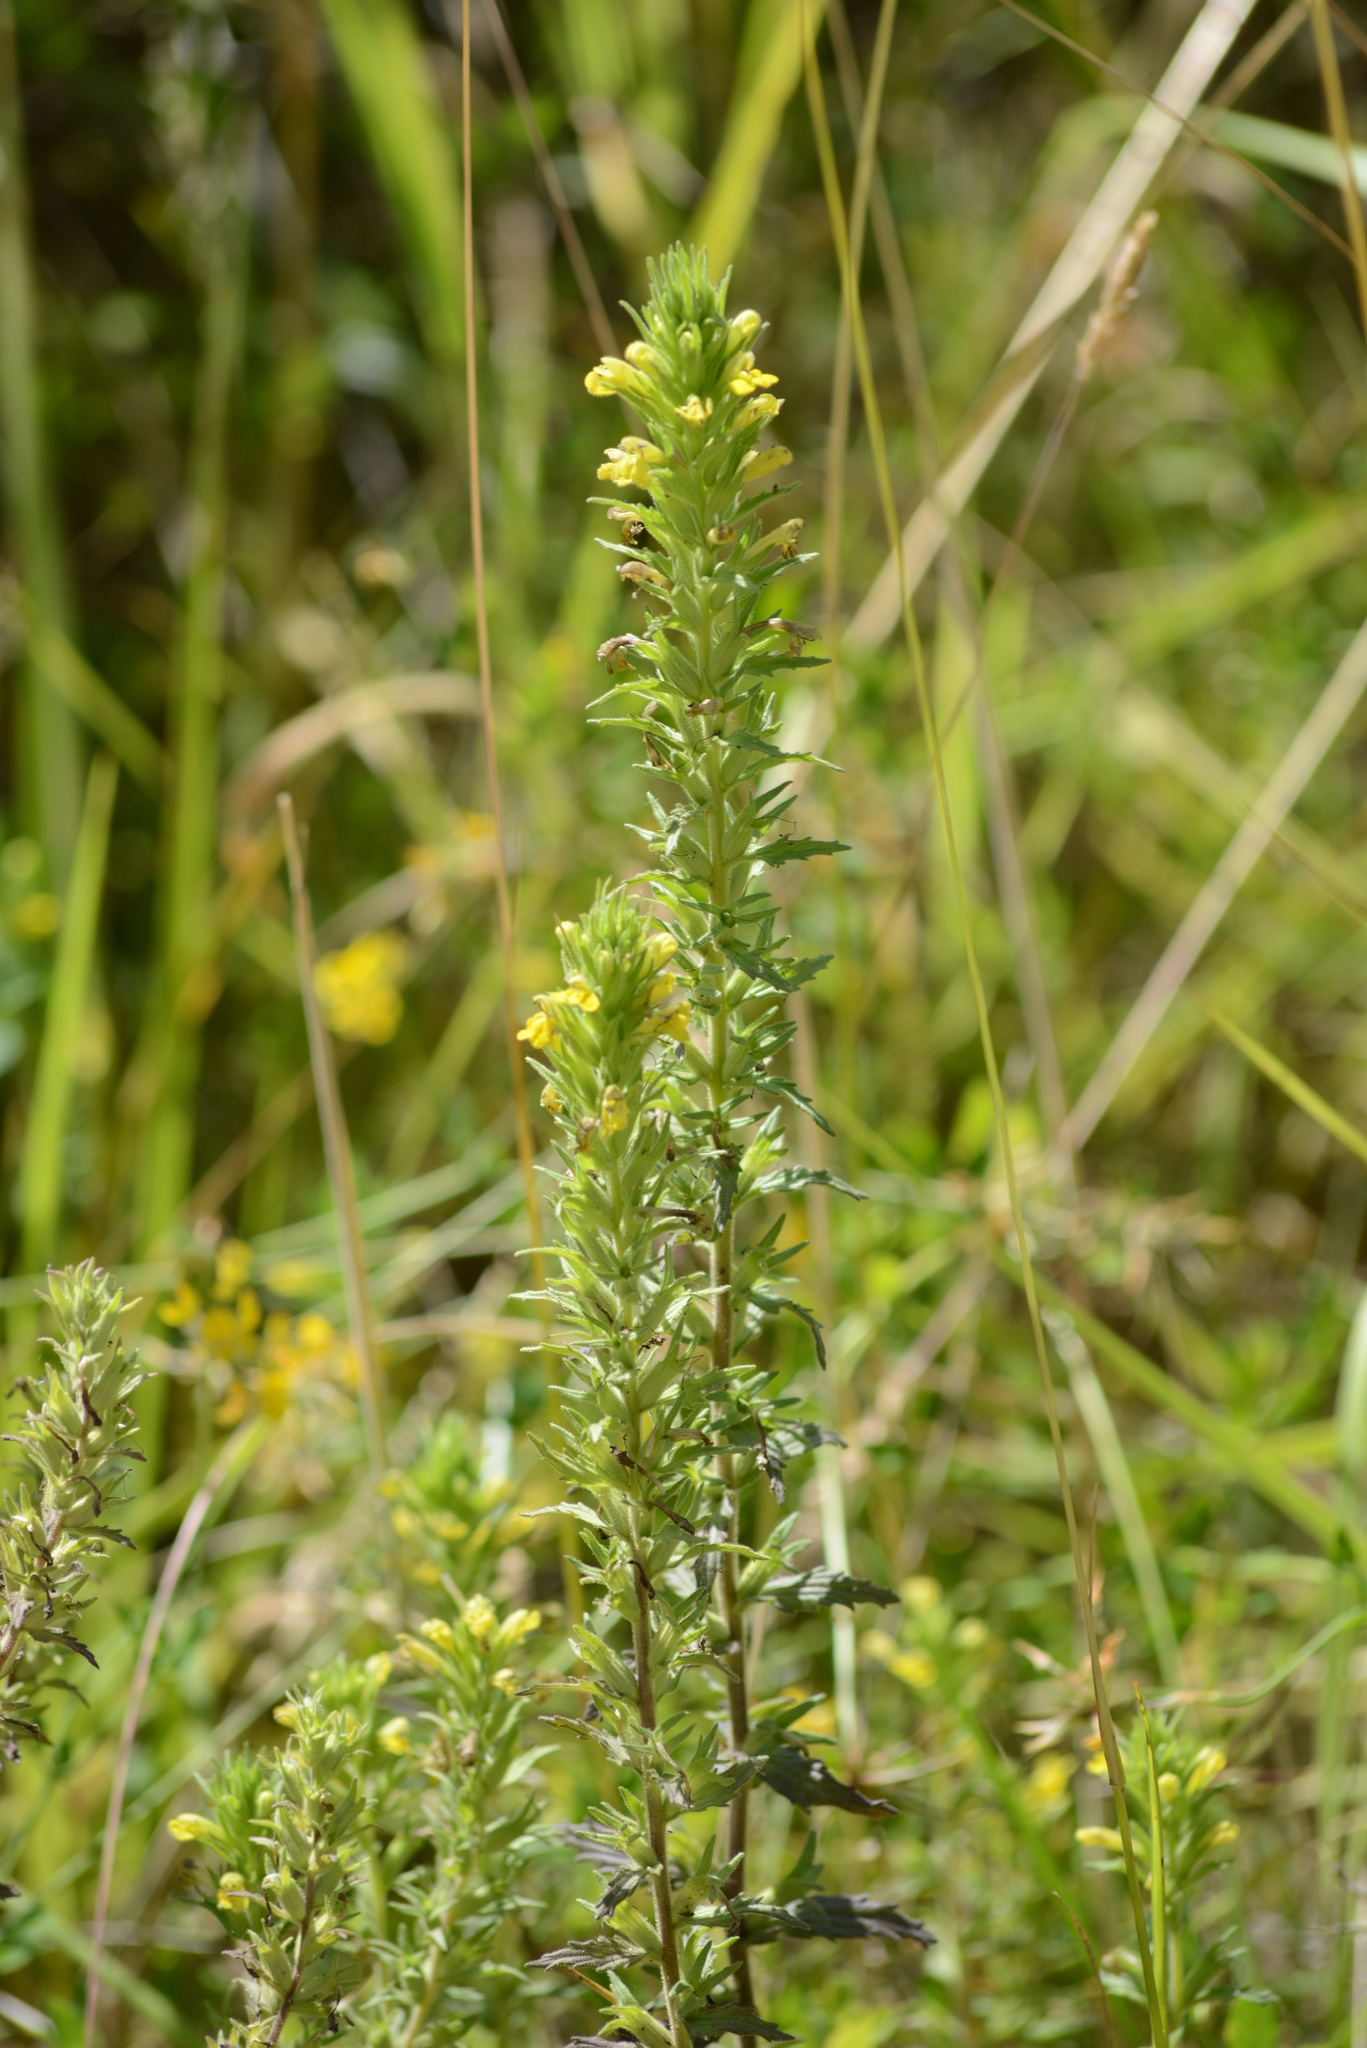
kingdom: Plantae
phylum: Tracheophyta
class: Magnoliopsida
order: Lamiales
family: Orobanchaceae
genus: Bellardia
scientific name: Bellardia viscosa
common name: Sticky parentucellia
